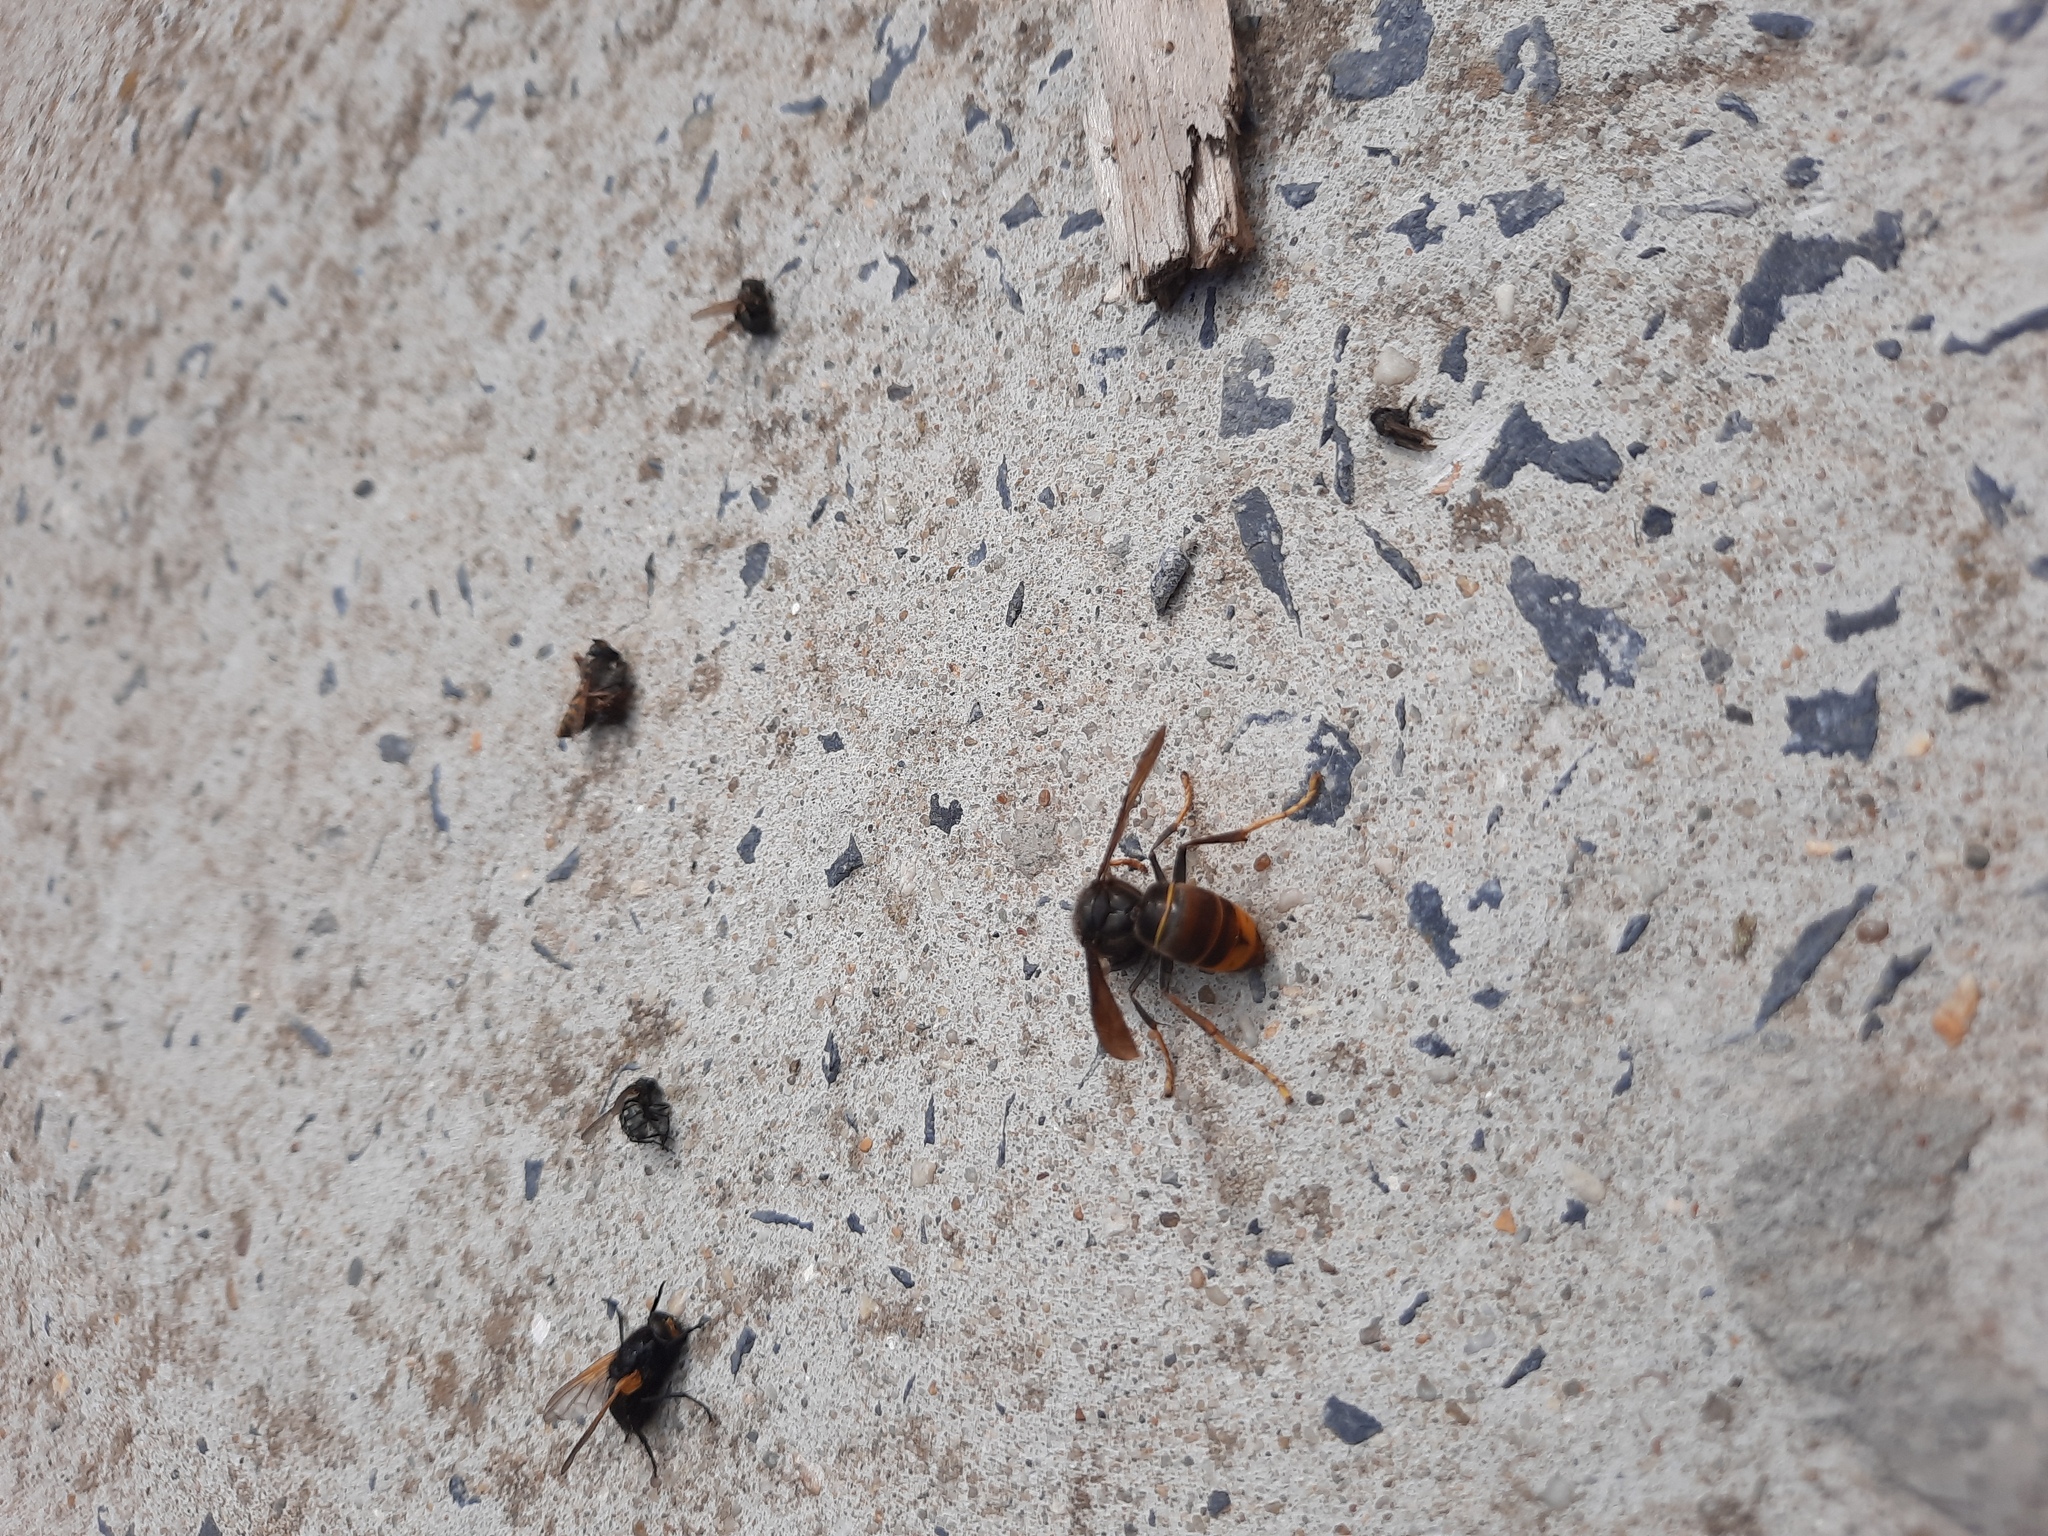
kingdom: Animalia
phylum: Arthropoda
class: Insecta
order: Hymenoptera
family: Vespidae
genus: Vespa
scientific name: Vespa velutina
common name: Asian hornet
